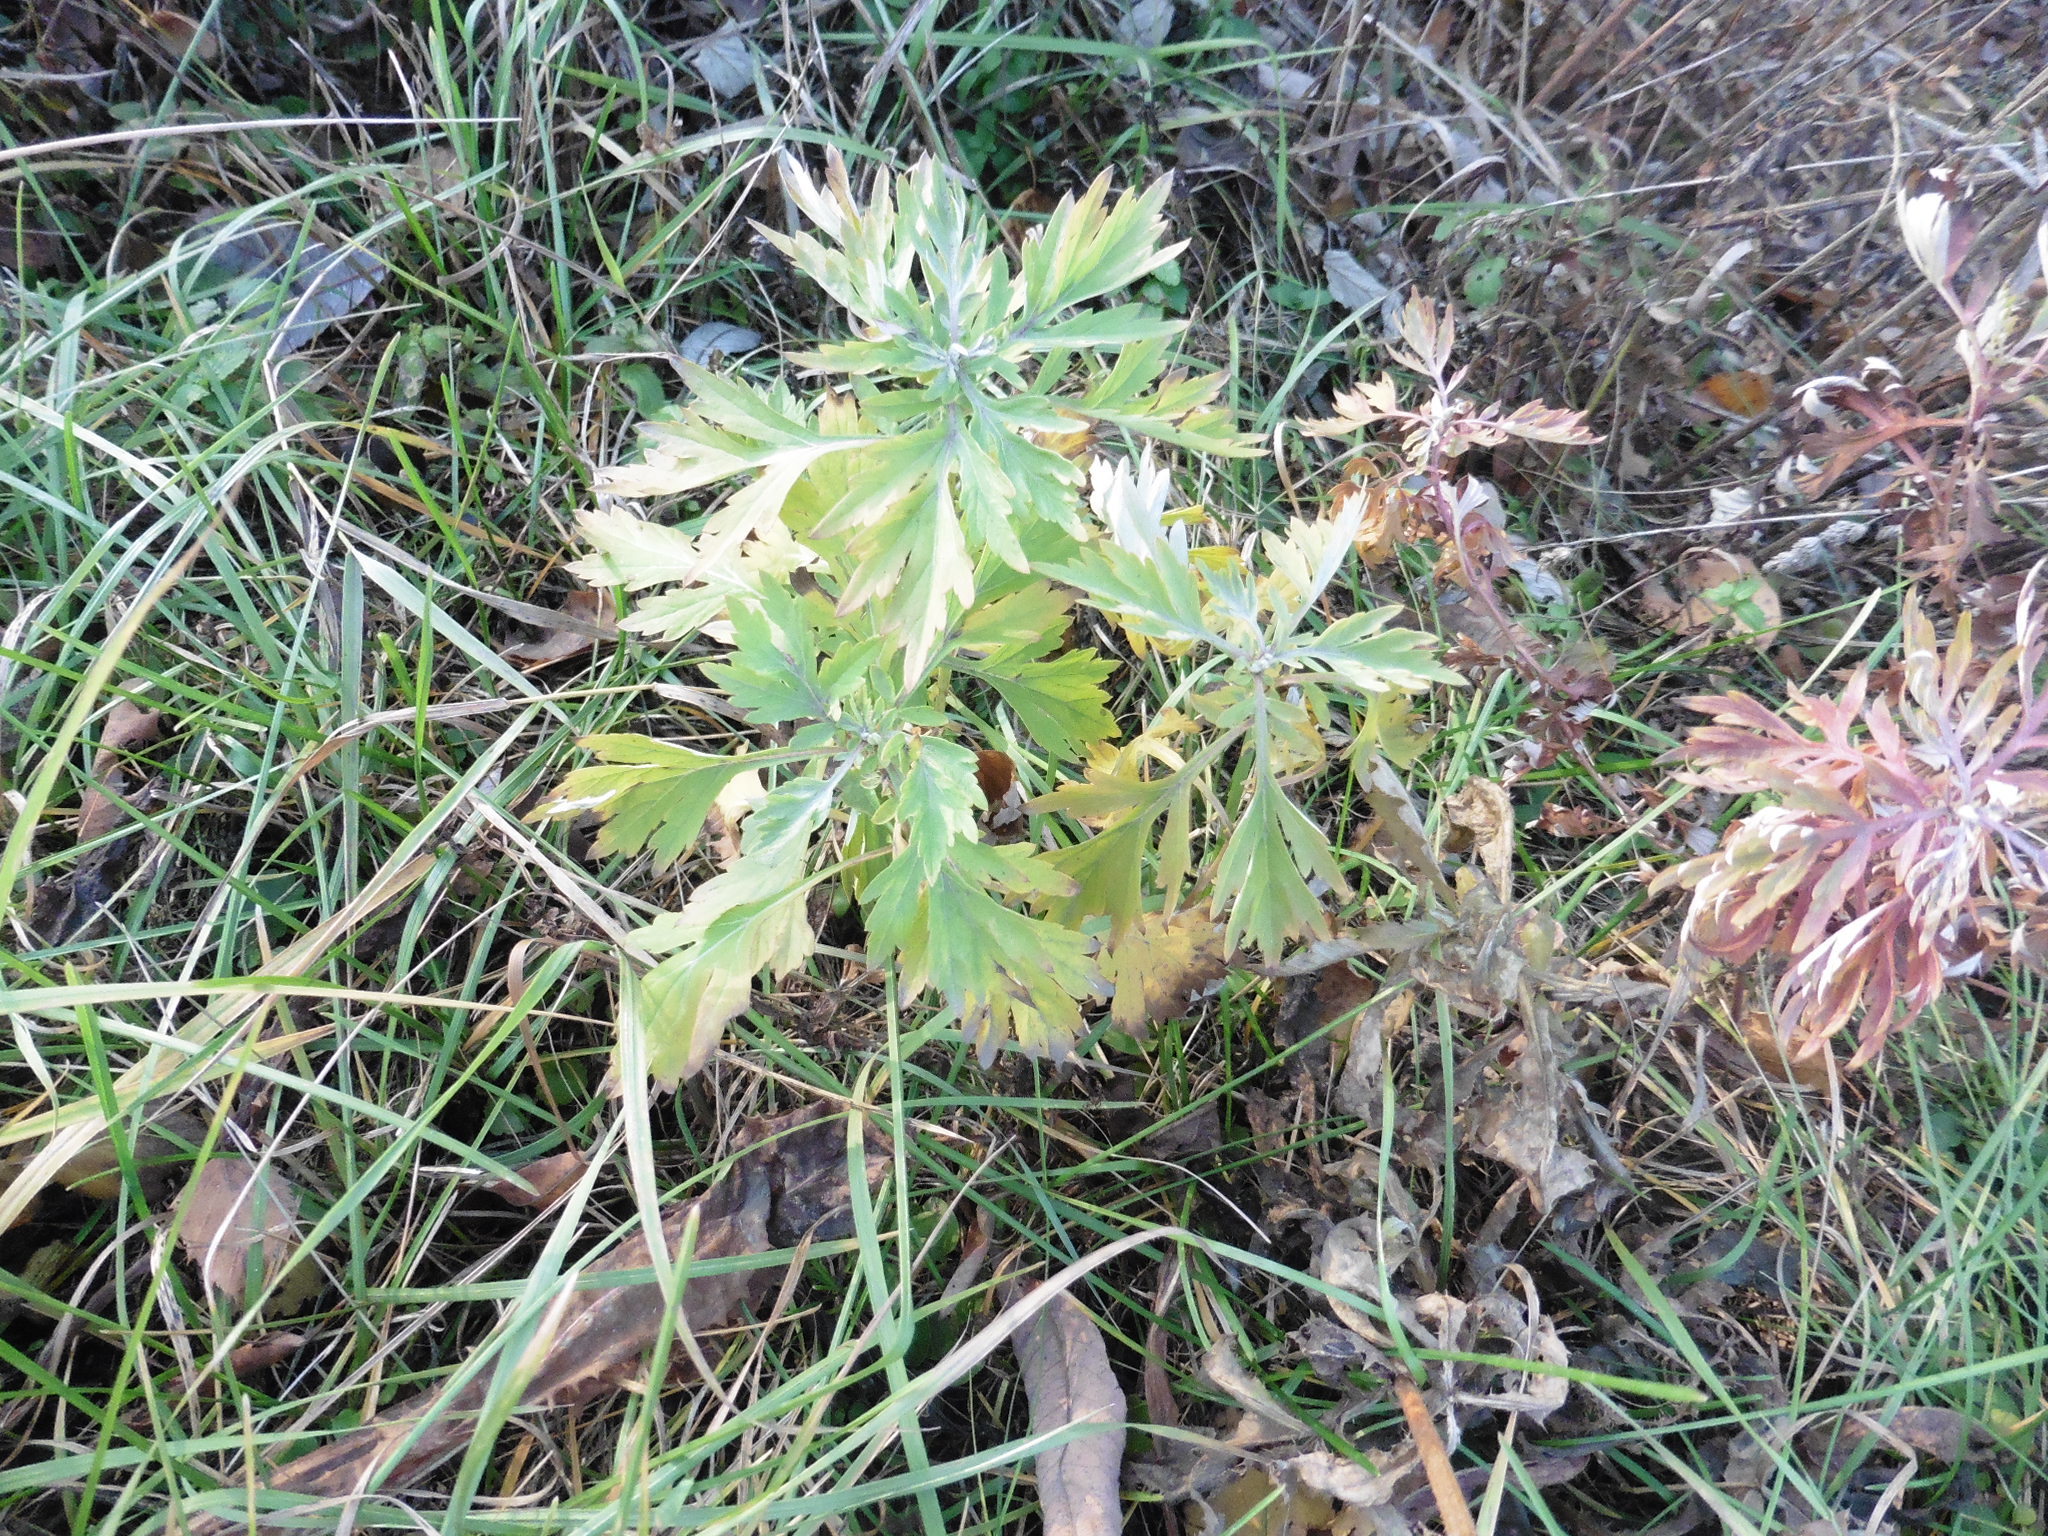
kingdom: Plantae
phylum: Tracheophyta
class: Magnoliopsida
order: Asterales
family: Asteraceae
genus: Artemisia
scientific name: Artemisia vulgaris
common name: Mugwort
